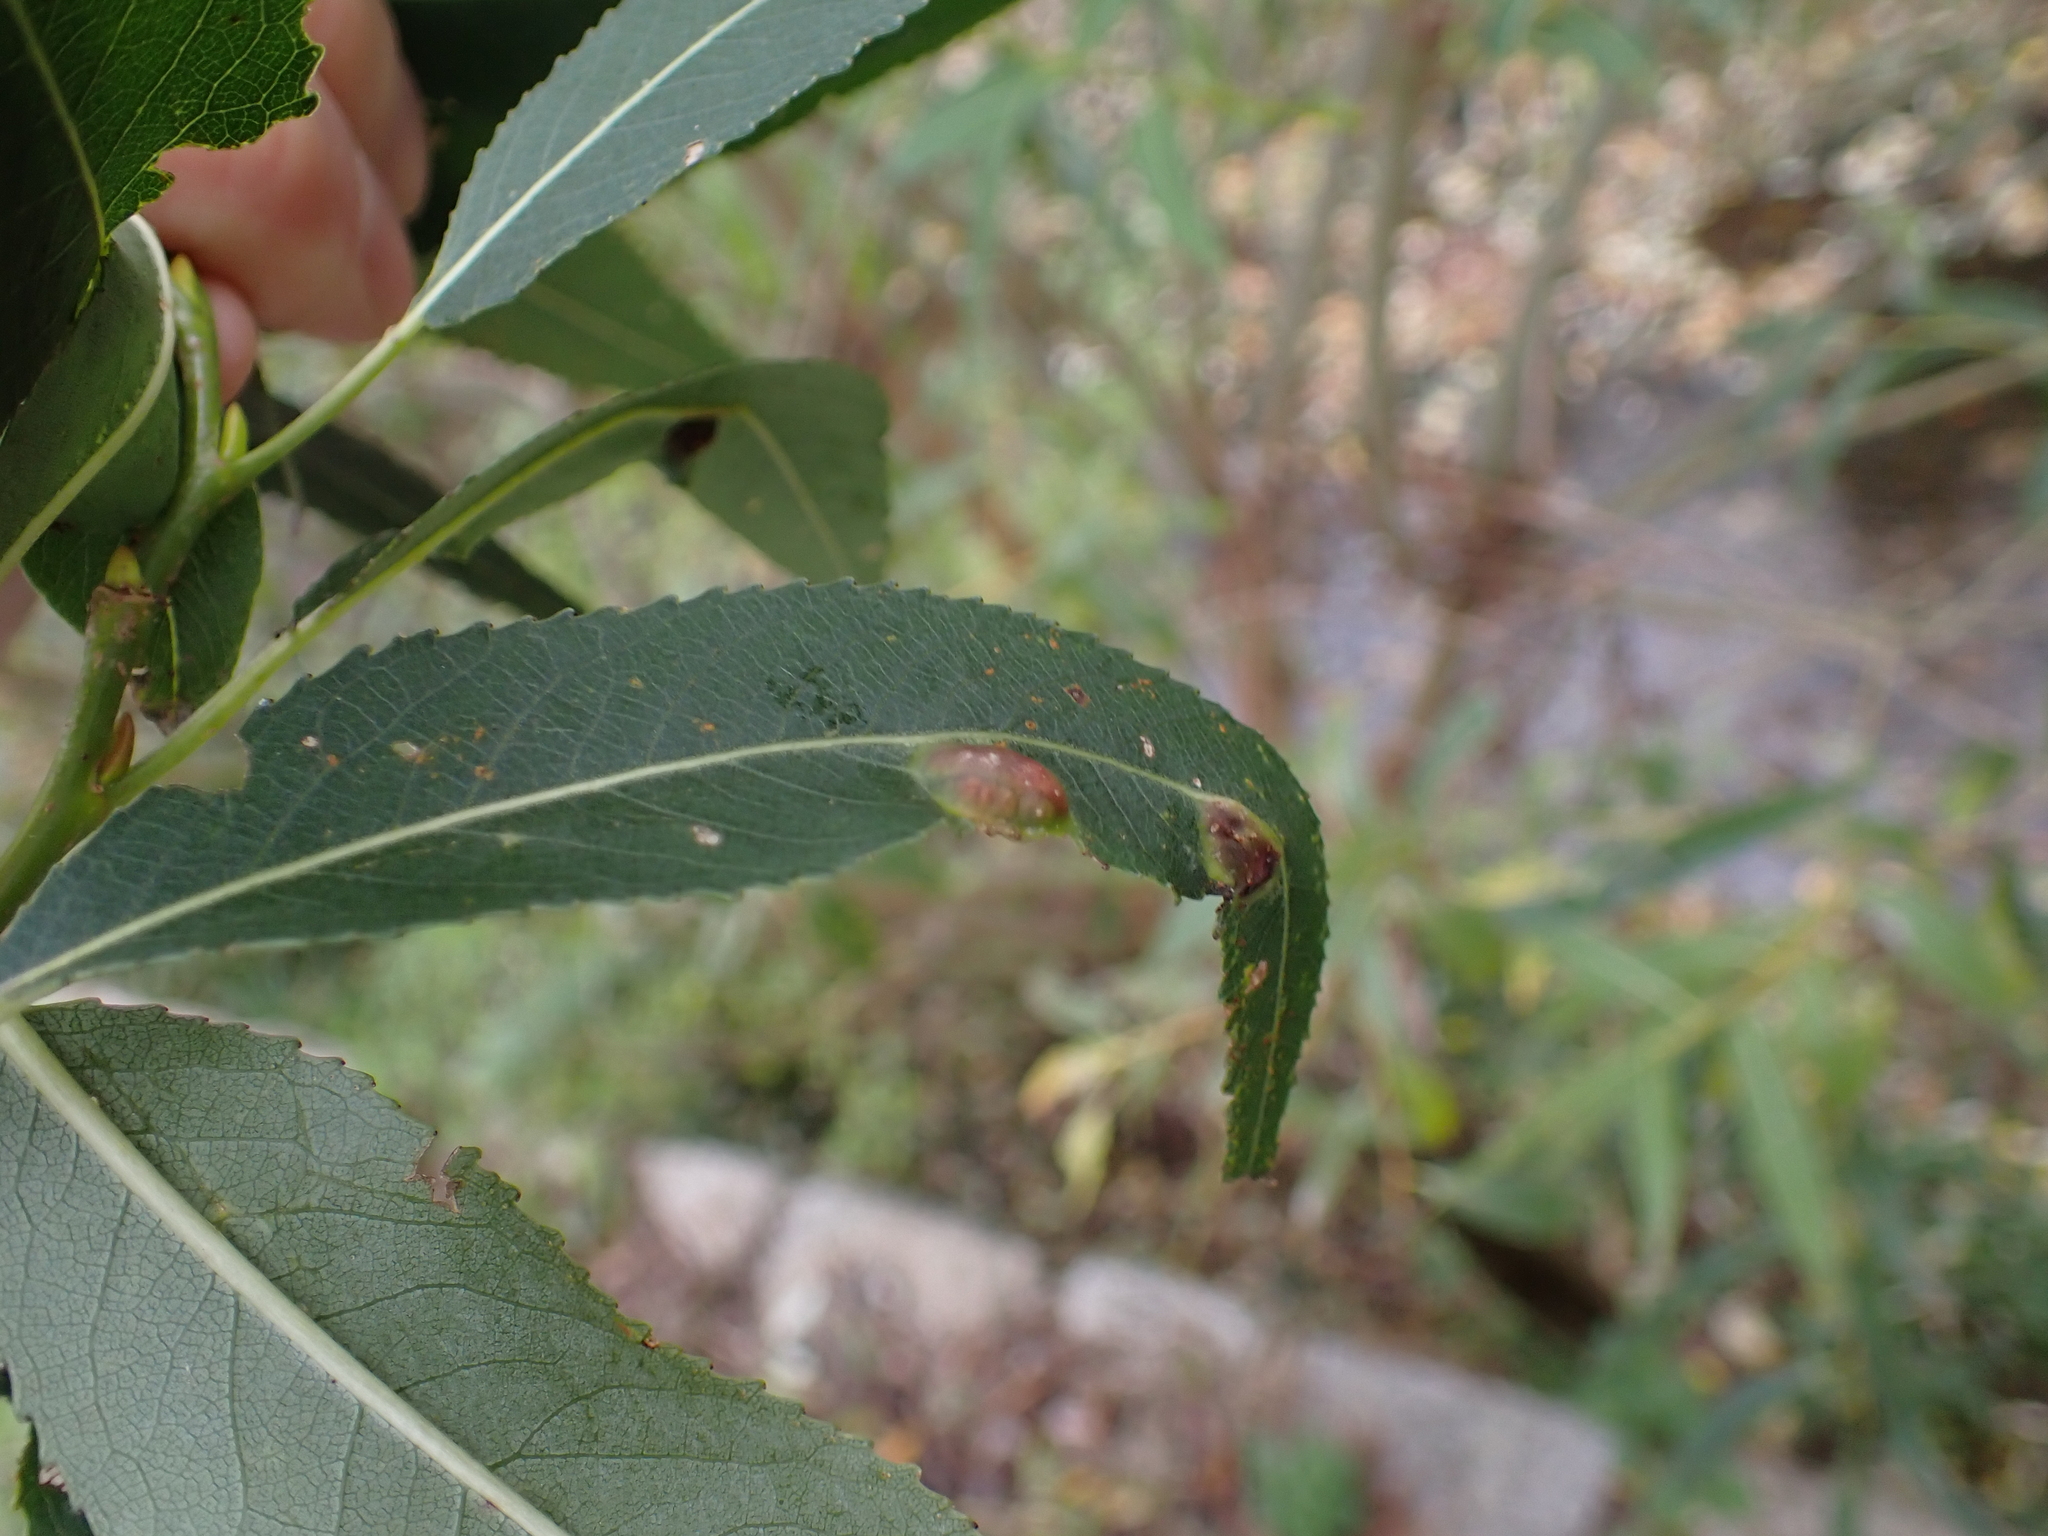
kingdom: Animalia
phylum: Arthropoda
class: Insecta
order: Hymenoptera
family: Tenthredinidae
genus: Pontania
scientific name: Pontania proxima
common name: Common sawfly
